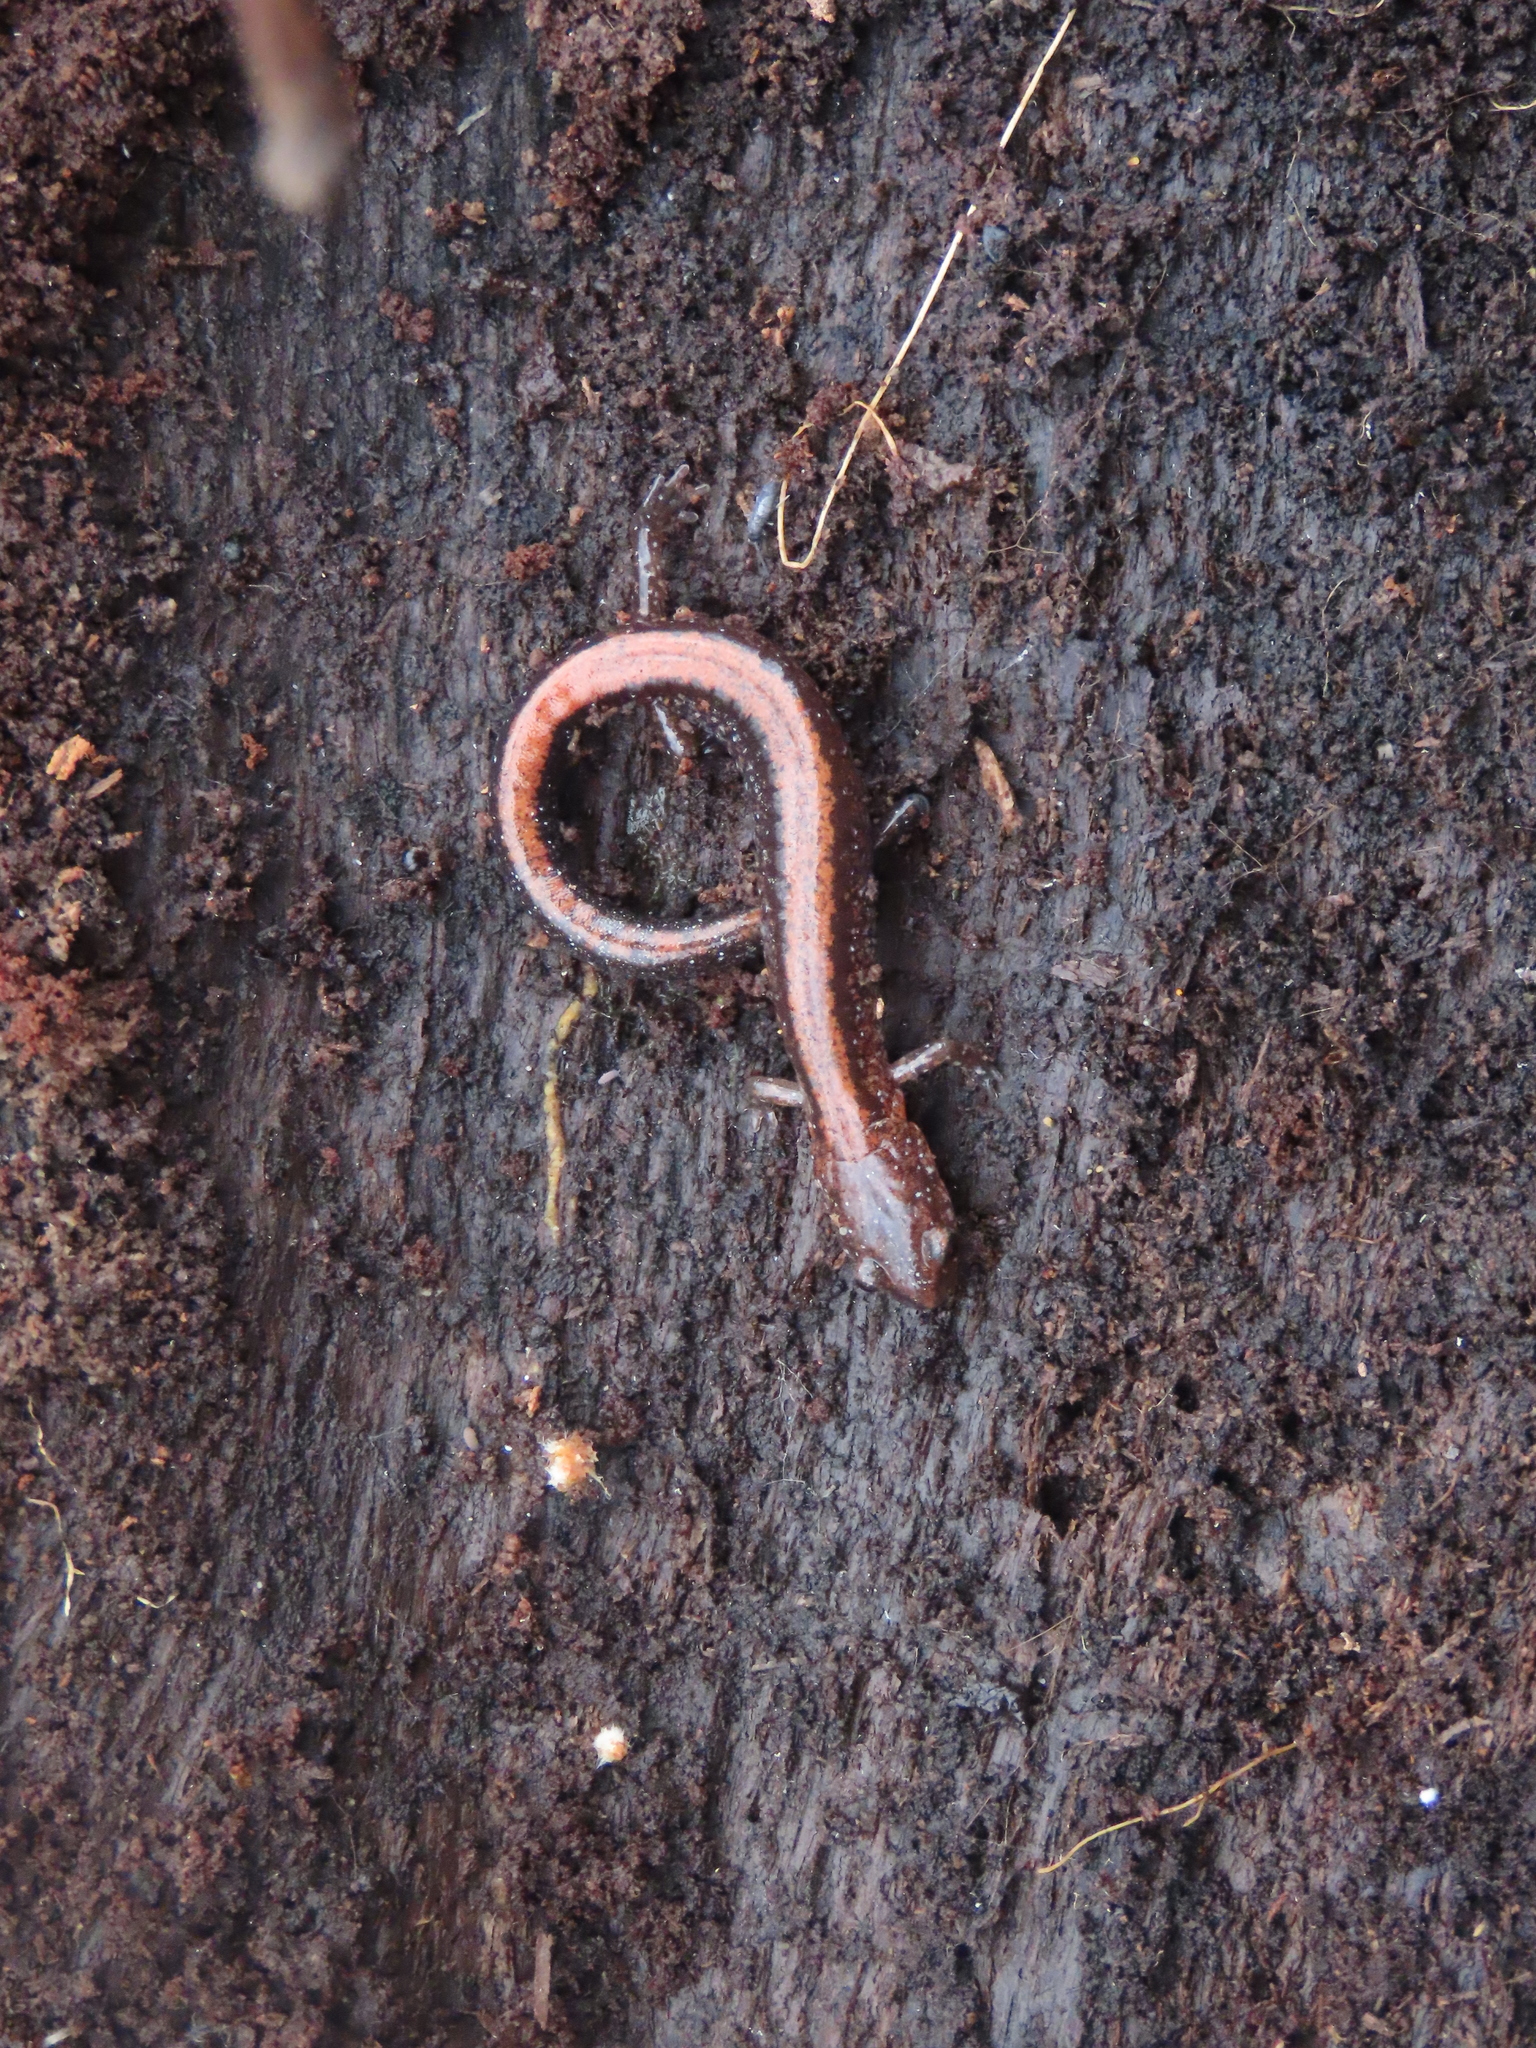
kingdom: Animalia
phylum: Chordata
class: Amphibia
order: Caudata
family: Plethodontidae
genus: Plethodon
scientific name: Plethodon cinereus
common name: Redback salamander
